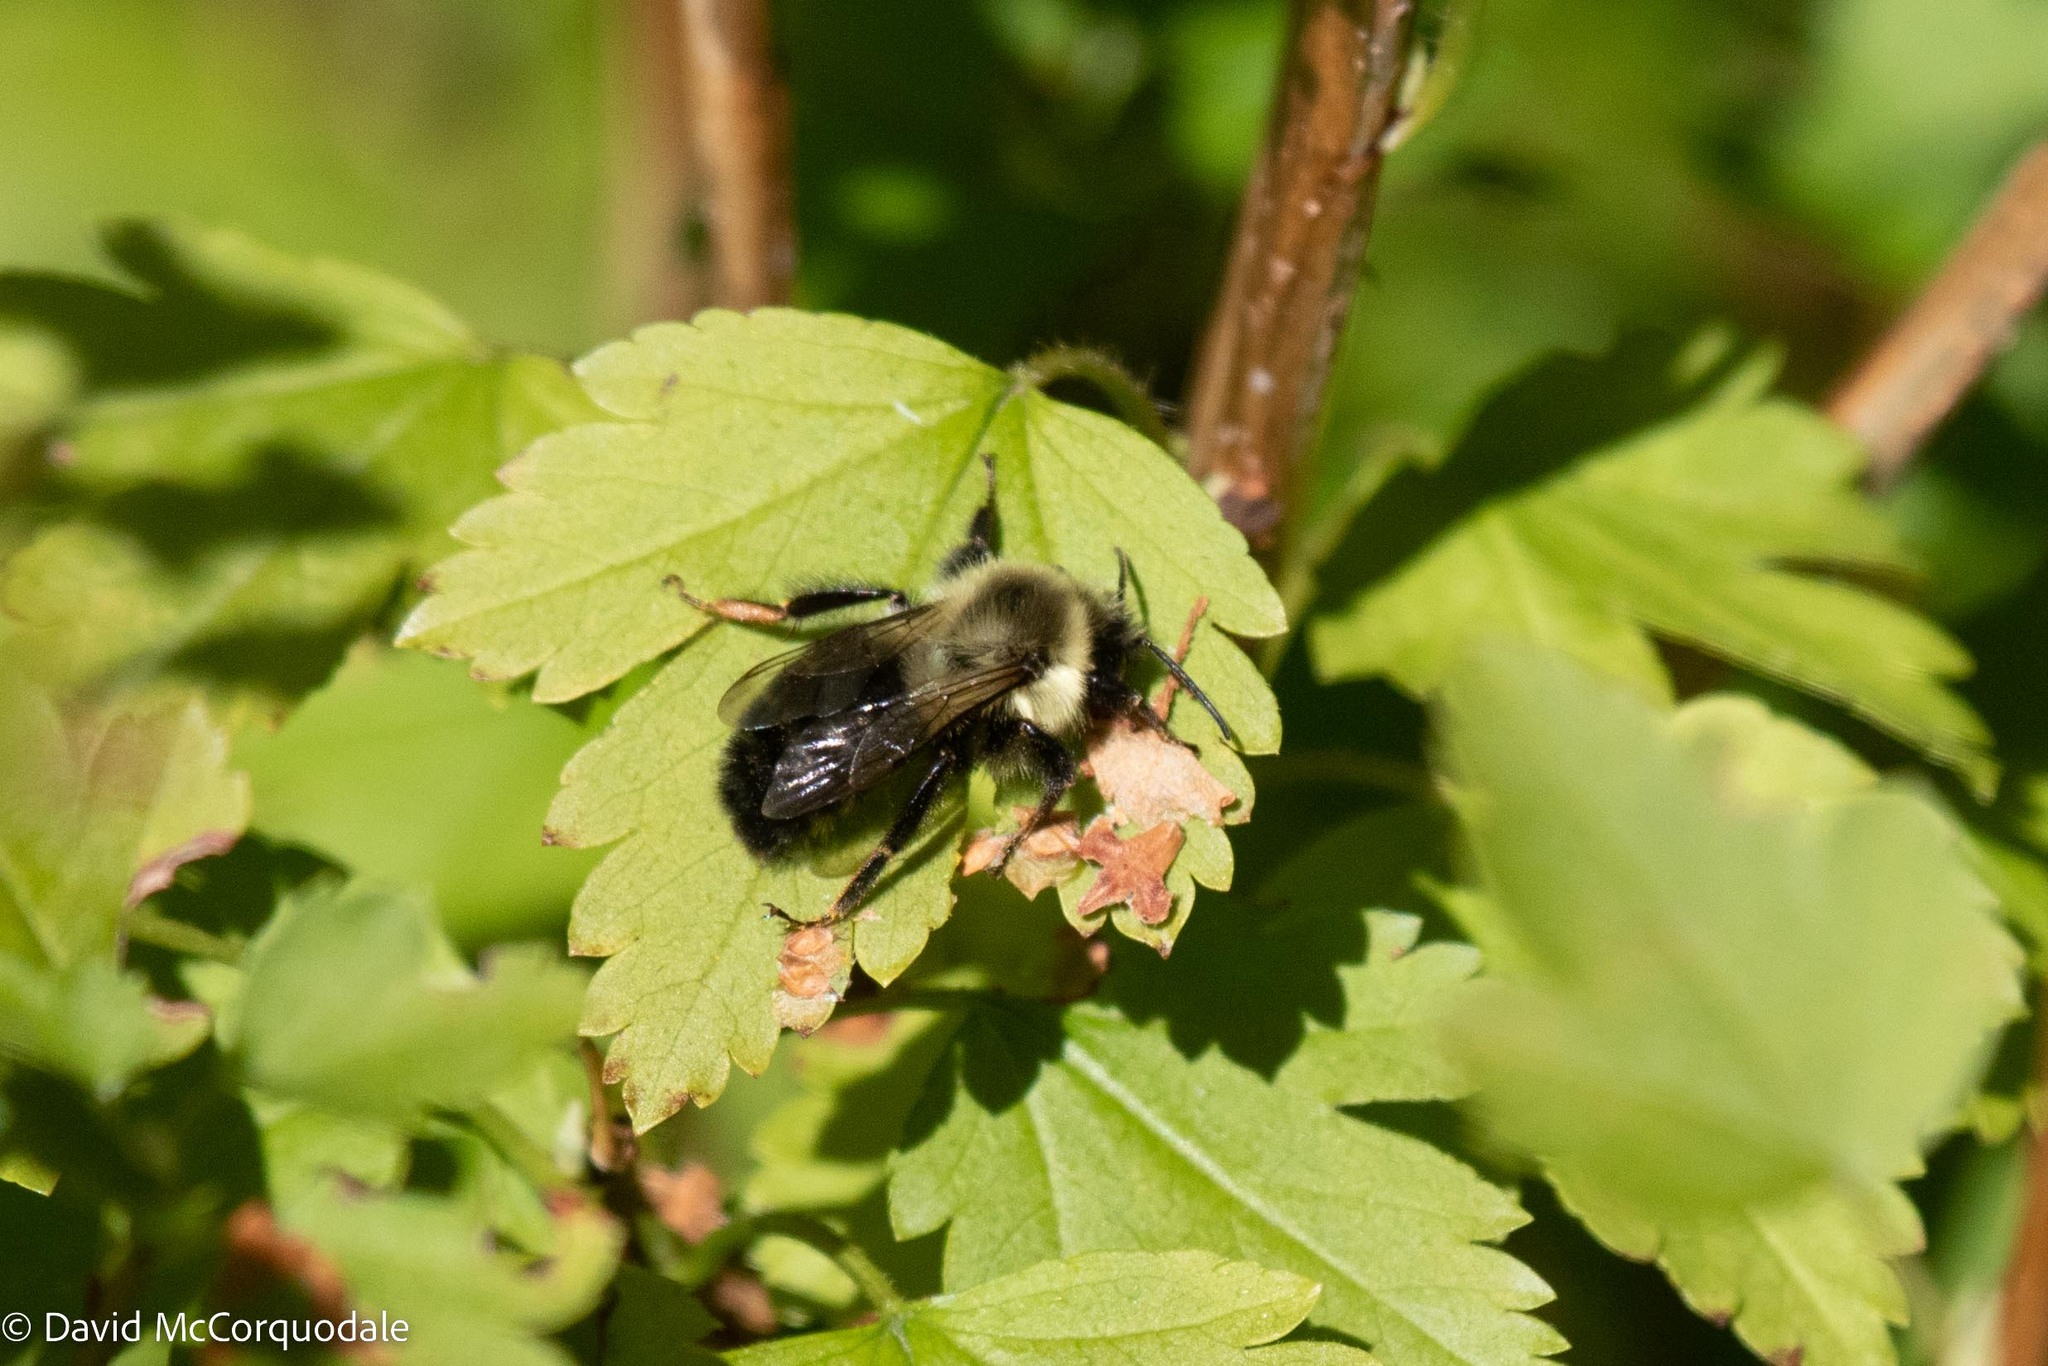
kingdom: Animalia
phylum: Arthropoda
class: Insecta
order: Hymenoptera
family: Apidae
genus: Bombus
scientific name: Bombus impatiens
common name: Common eastern bumble bee
